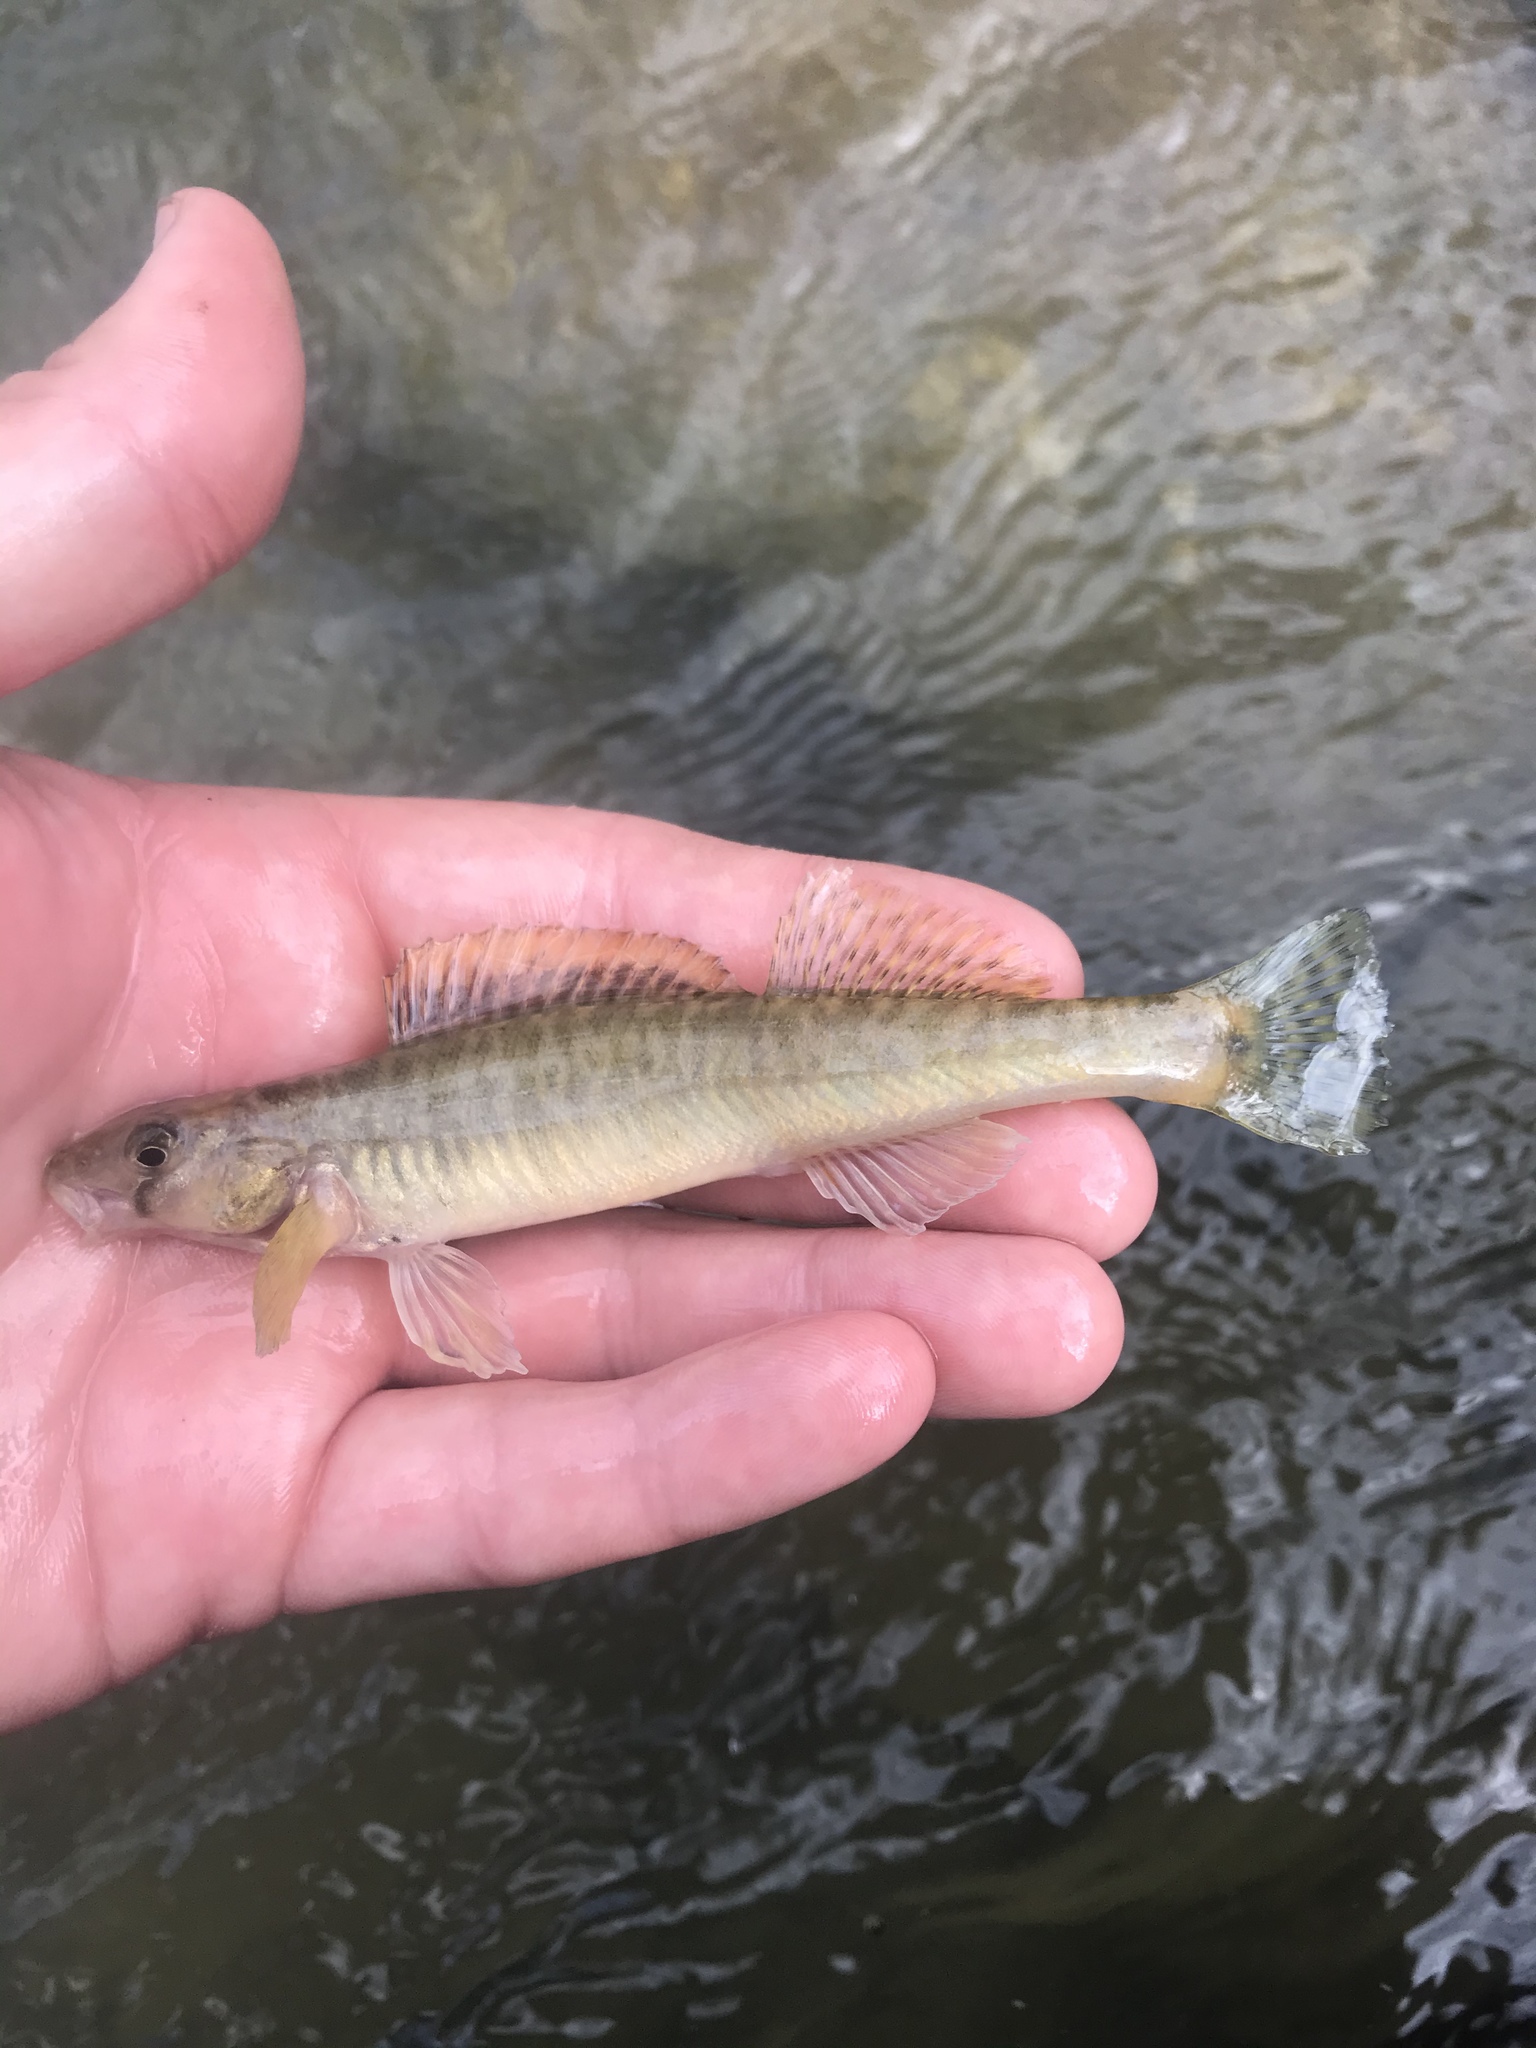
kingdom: Animalia
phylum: Chordata
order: Perciformes
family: Percidae
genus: Percina
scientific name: Percina carbonaria
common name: Texas logperch
